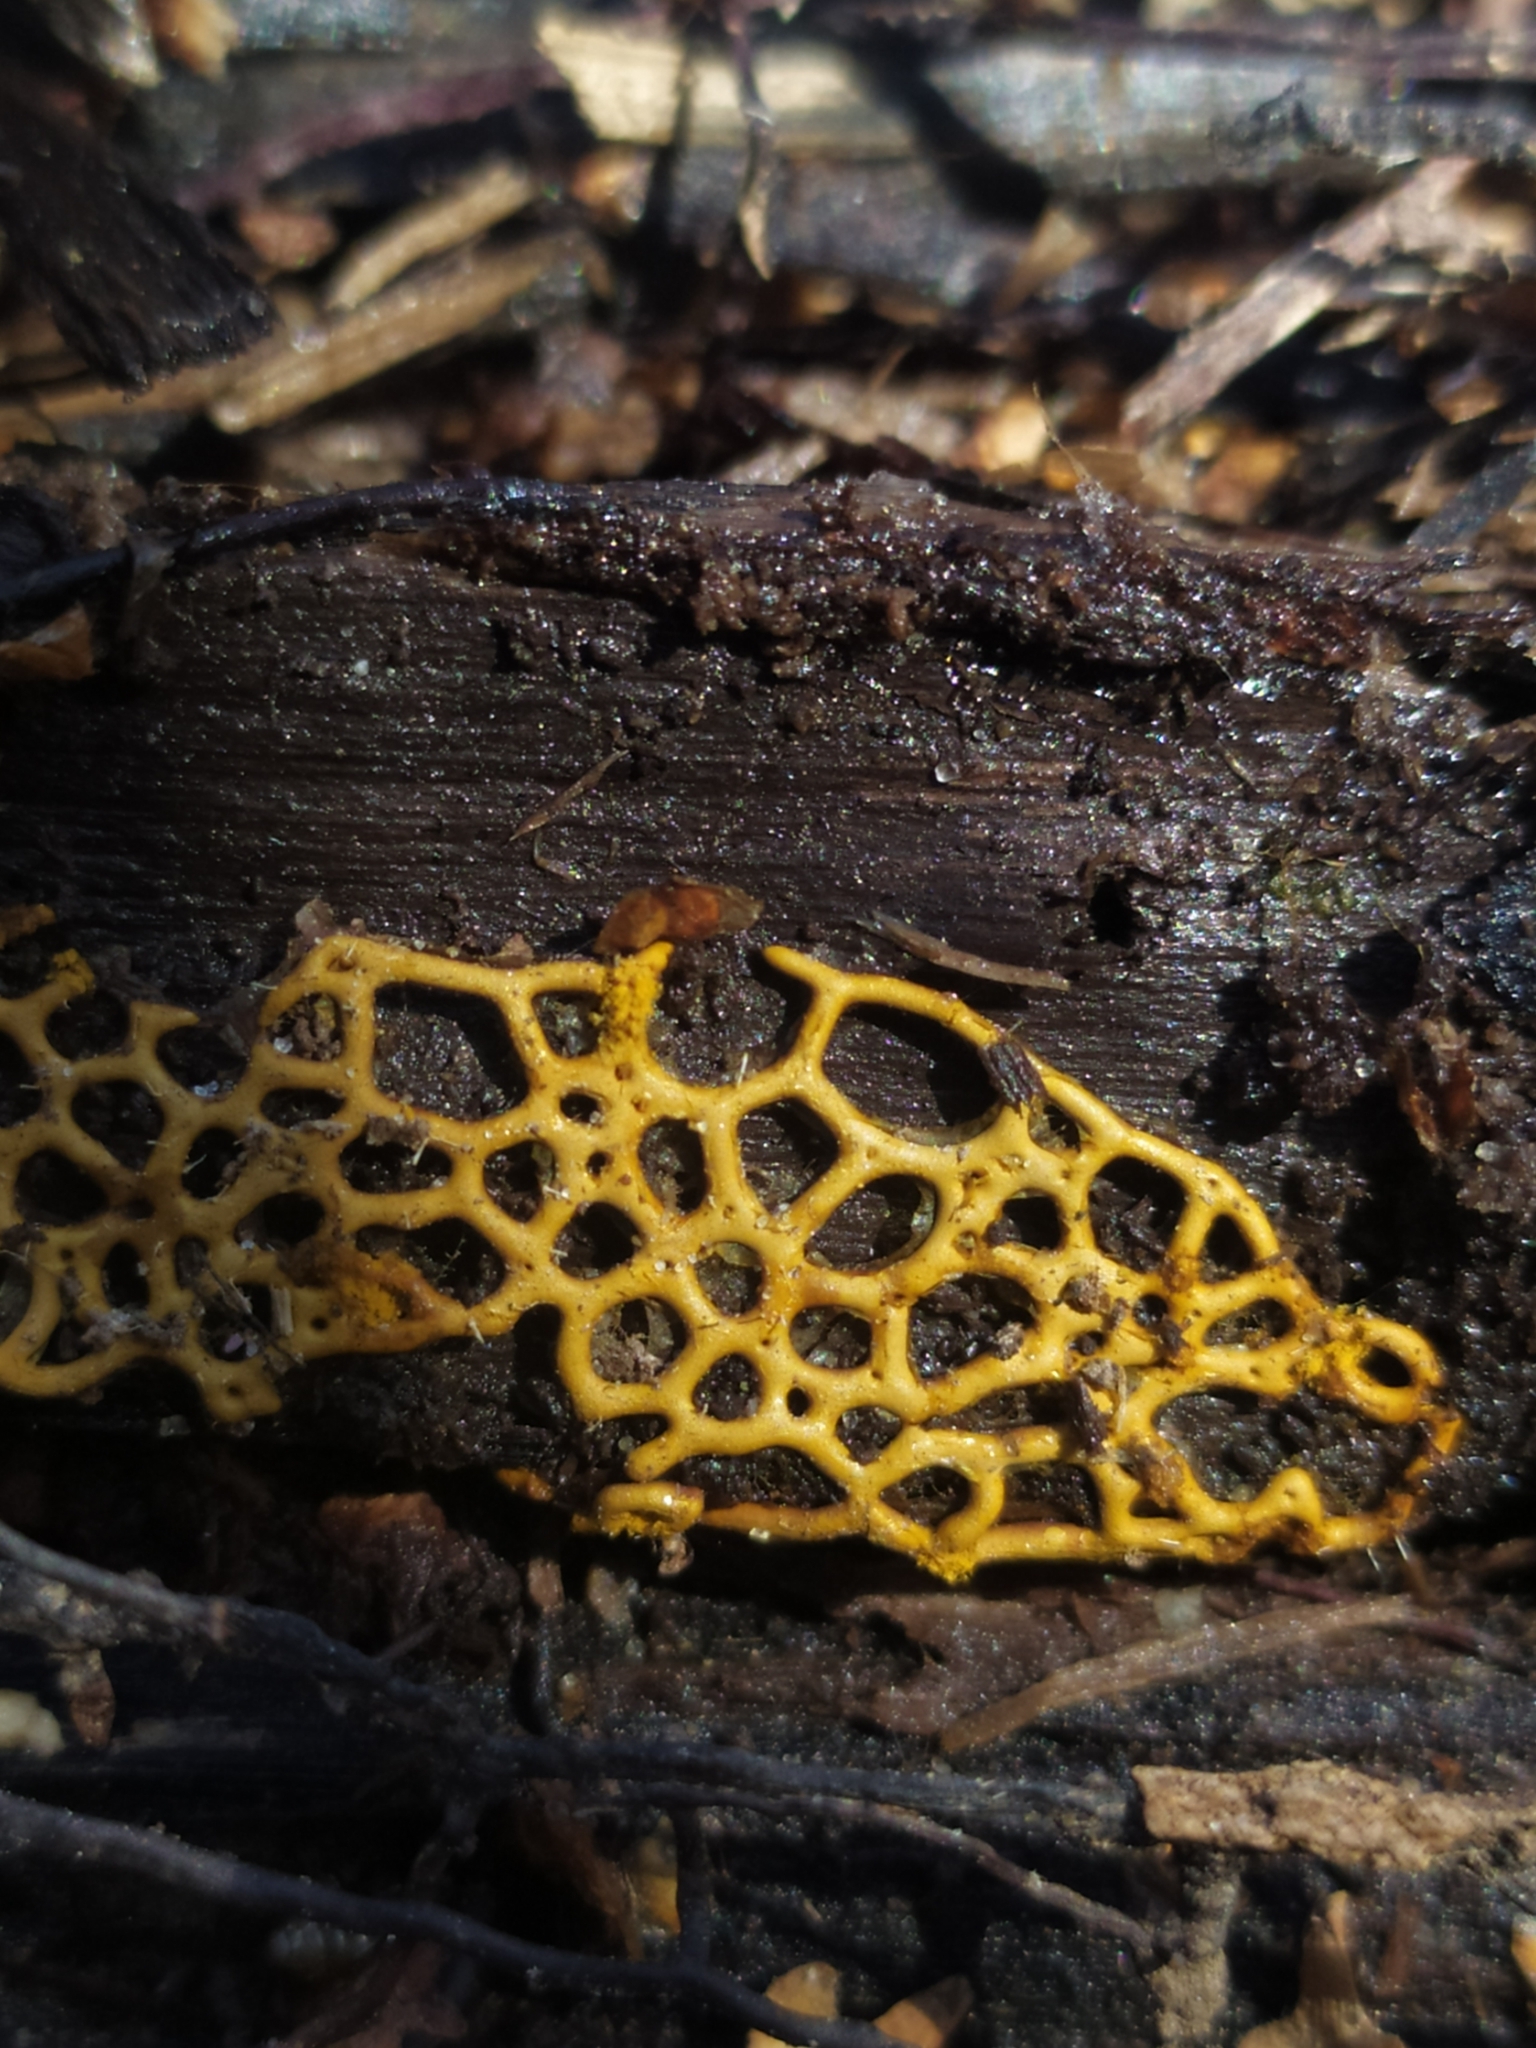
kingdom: Protozoa
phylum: Mycetozoa
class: Myxomycetes
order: Trichiales
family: Arcyriaceae
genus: Hemitrichia
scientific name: Hemitrichia serpula
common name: Pretzel slime mold
